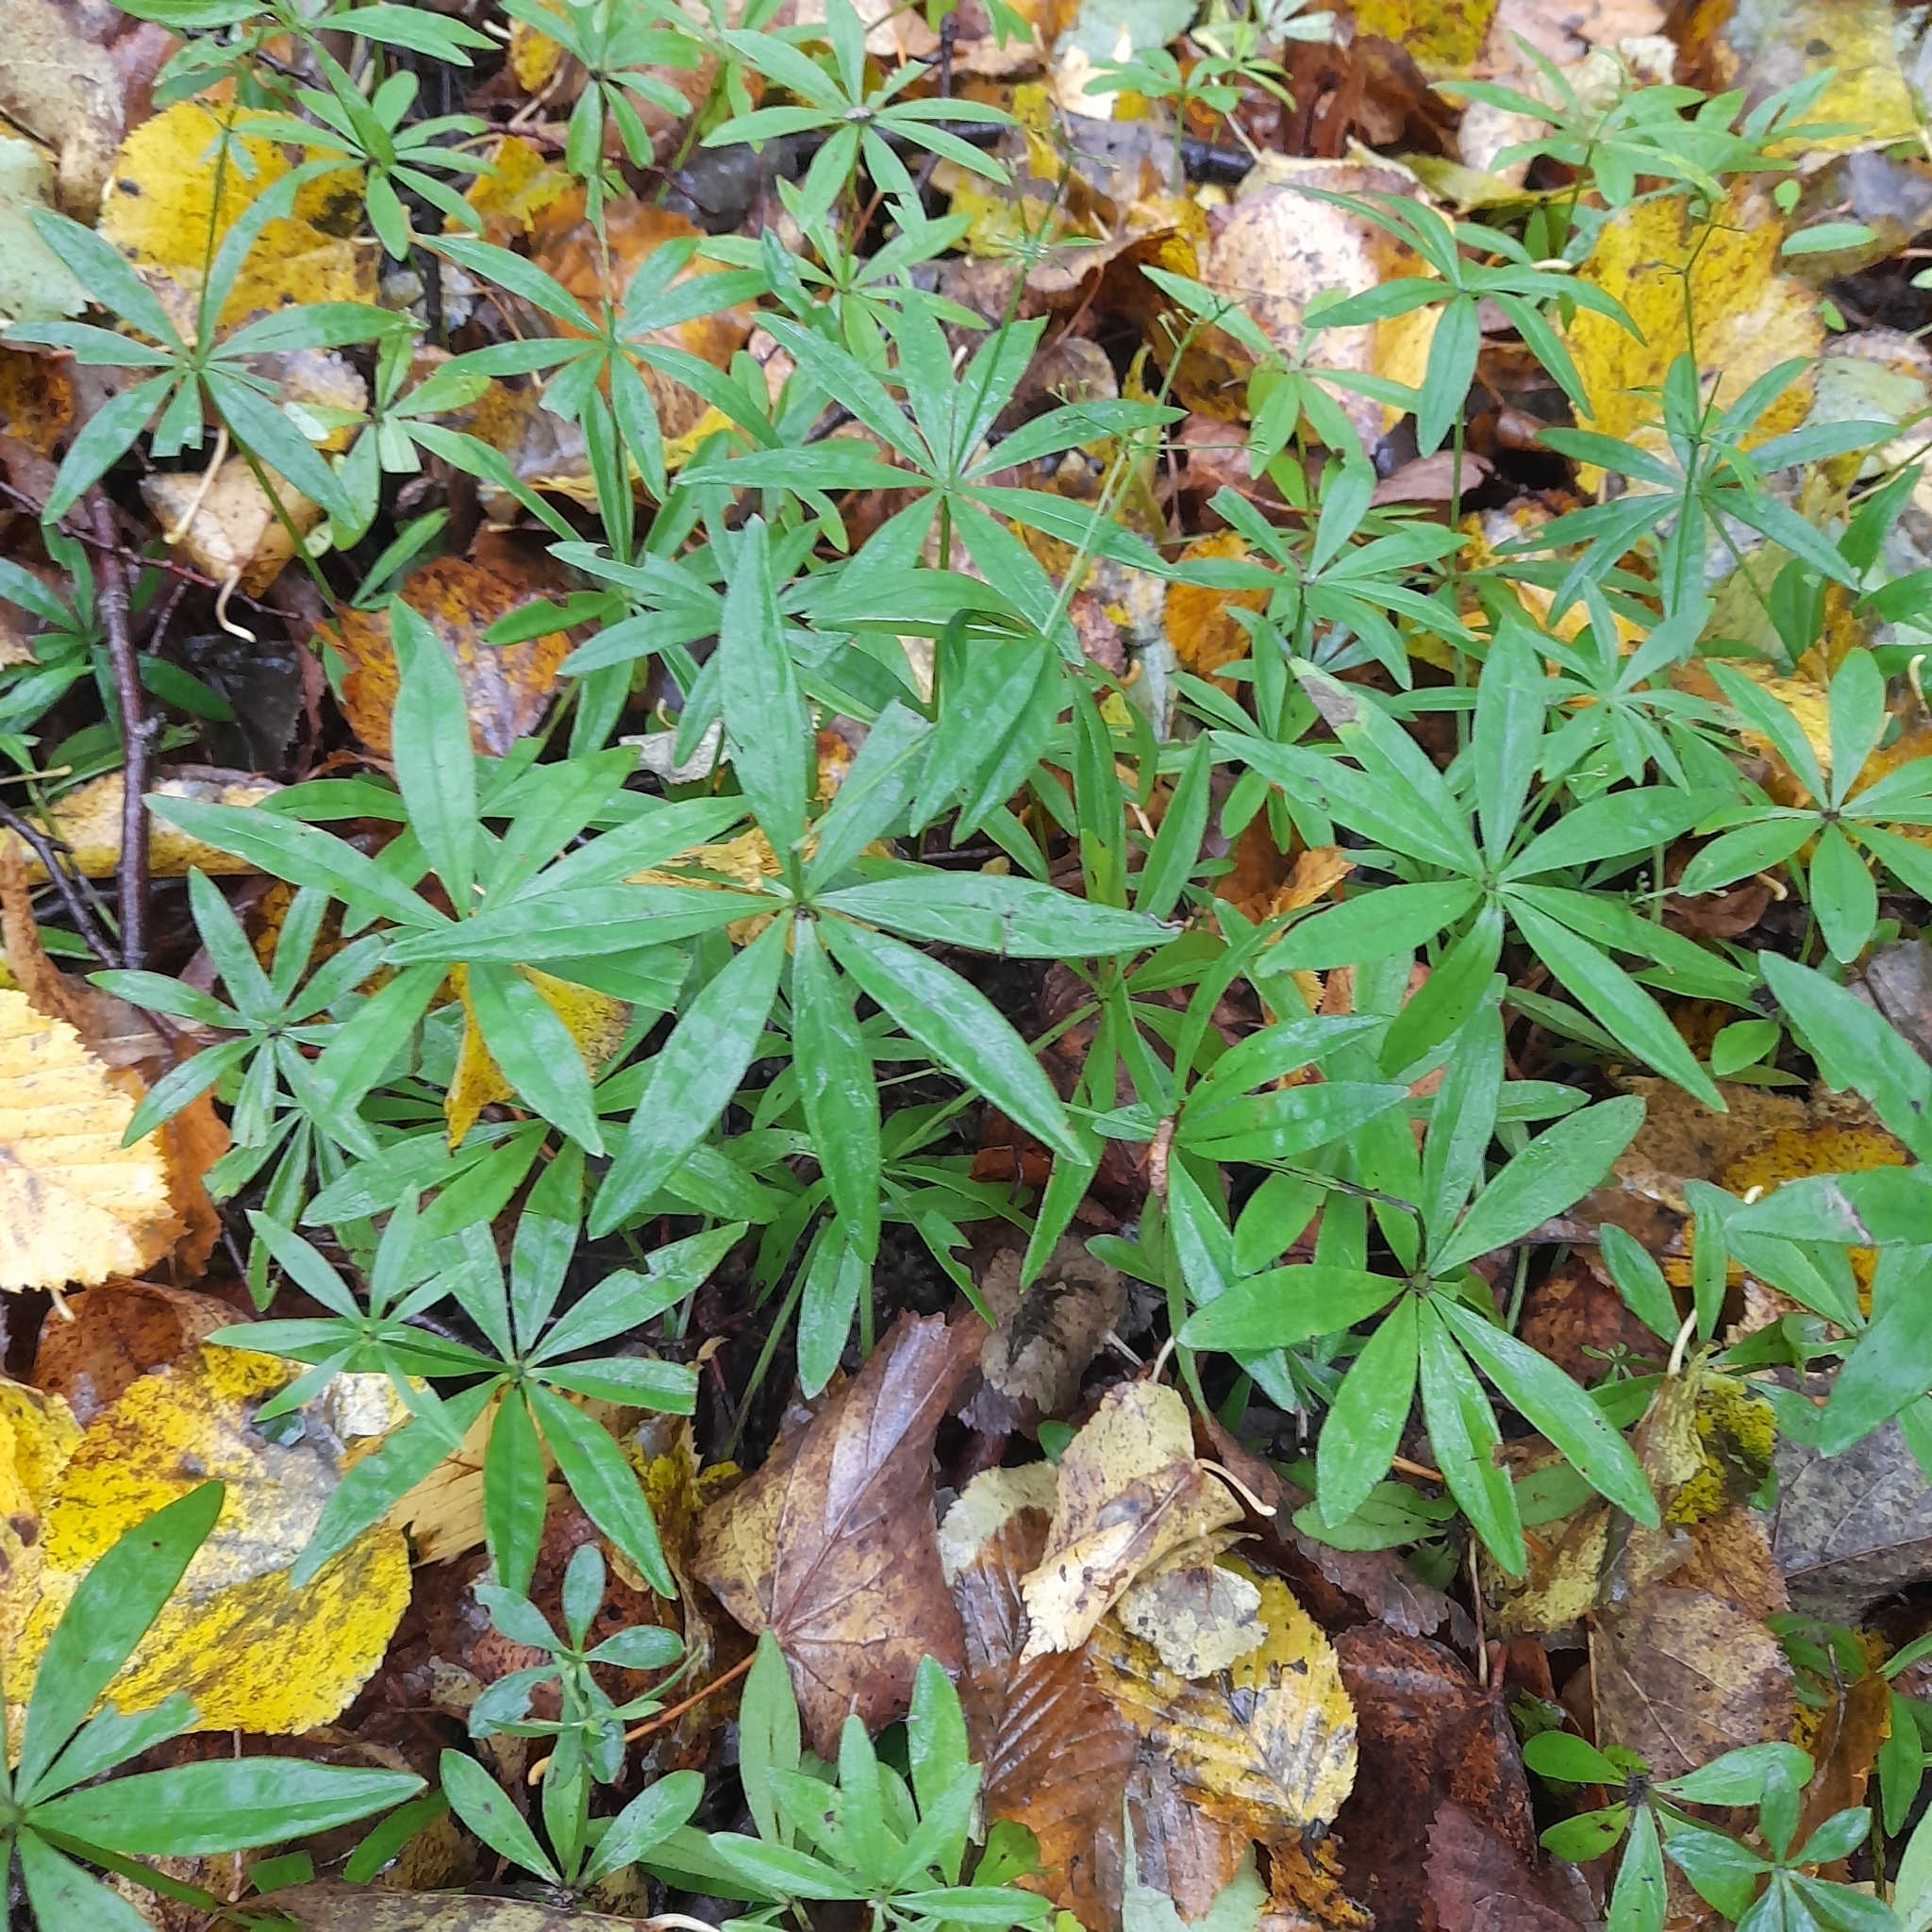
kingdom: Plantae
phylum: Tracheophyta
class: Magnoliopsida
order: Gentianales
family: Rubiaceae
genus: Galium
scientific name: Galium odoratum
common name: Sweet woodruff
